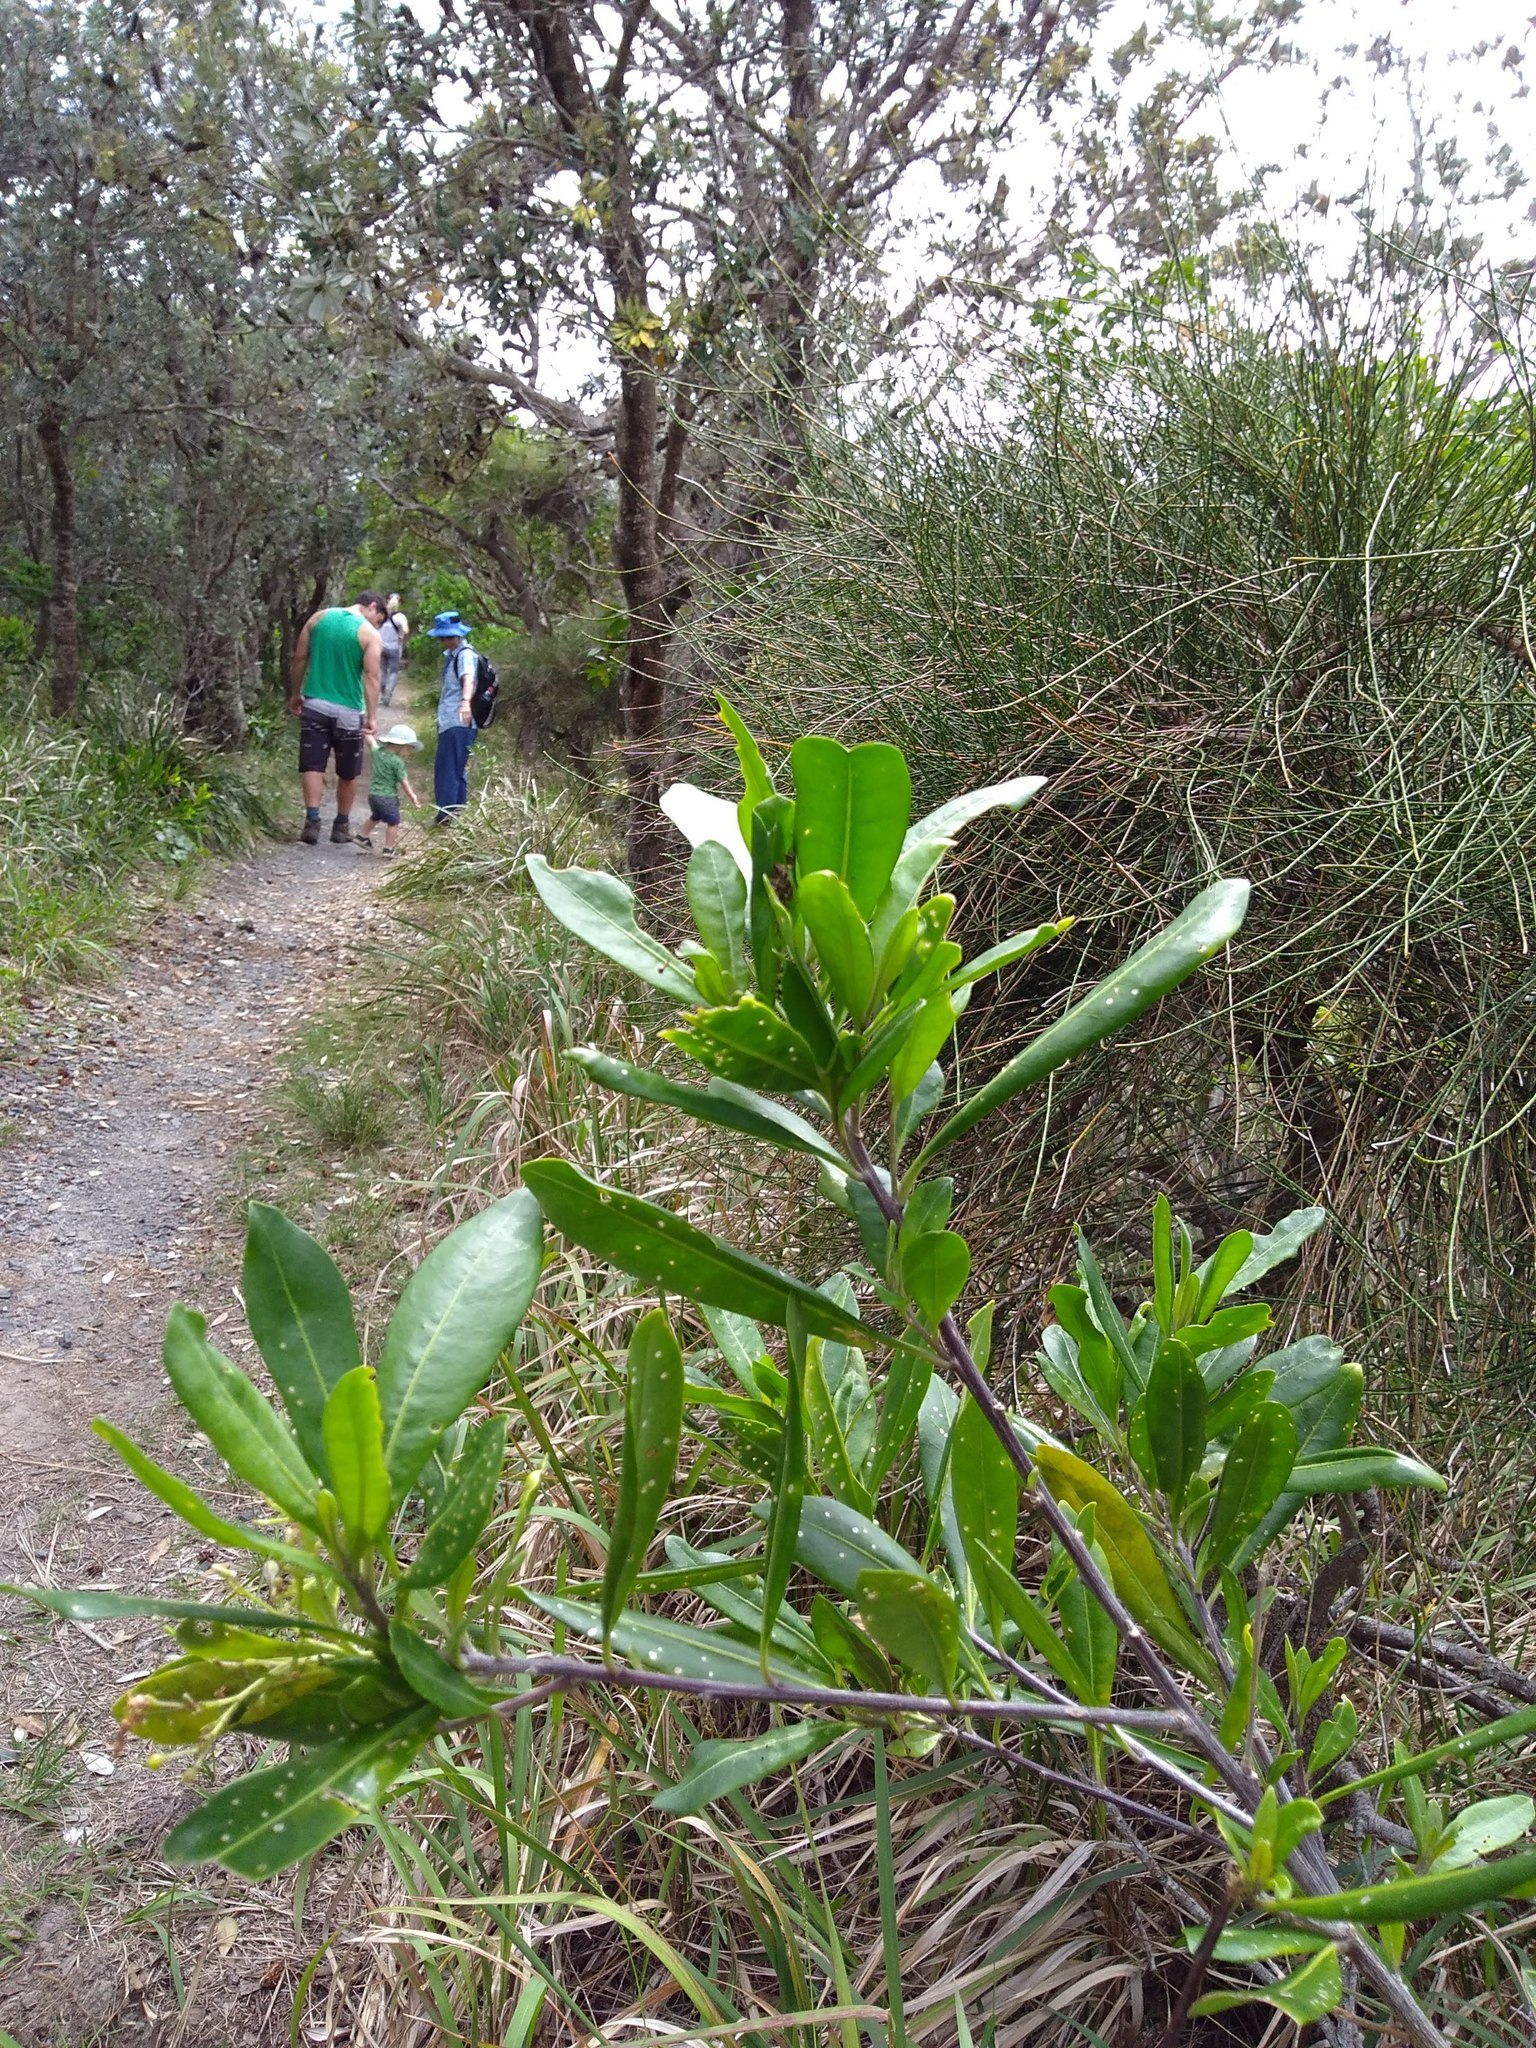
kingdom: Plantae
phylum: Tracheophyta
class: Magnoliopsida
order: Solanales
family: Solanaceae
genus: Duboisia
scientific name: Duboisia myoporoides
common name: Corkwoodtree
